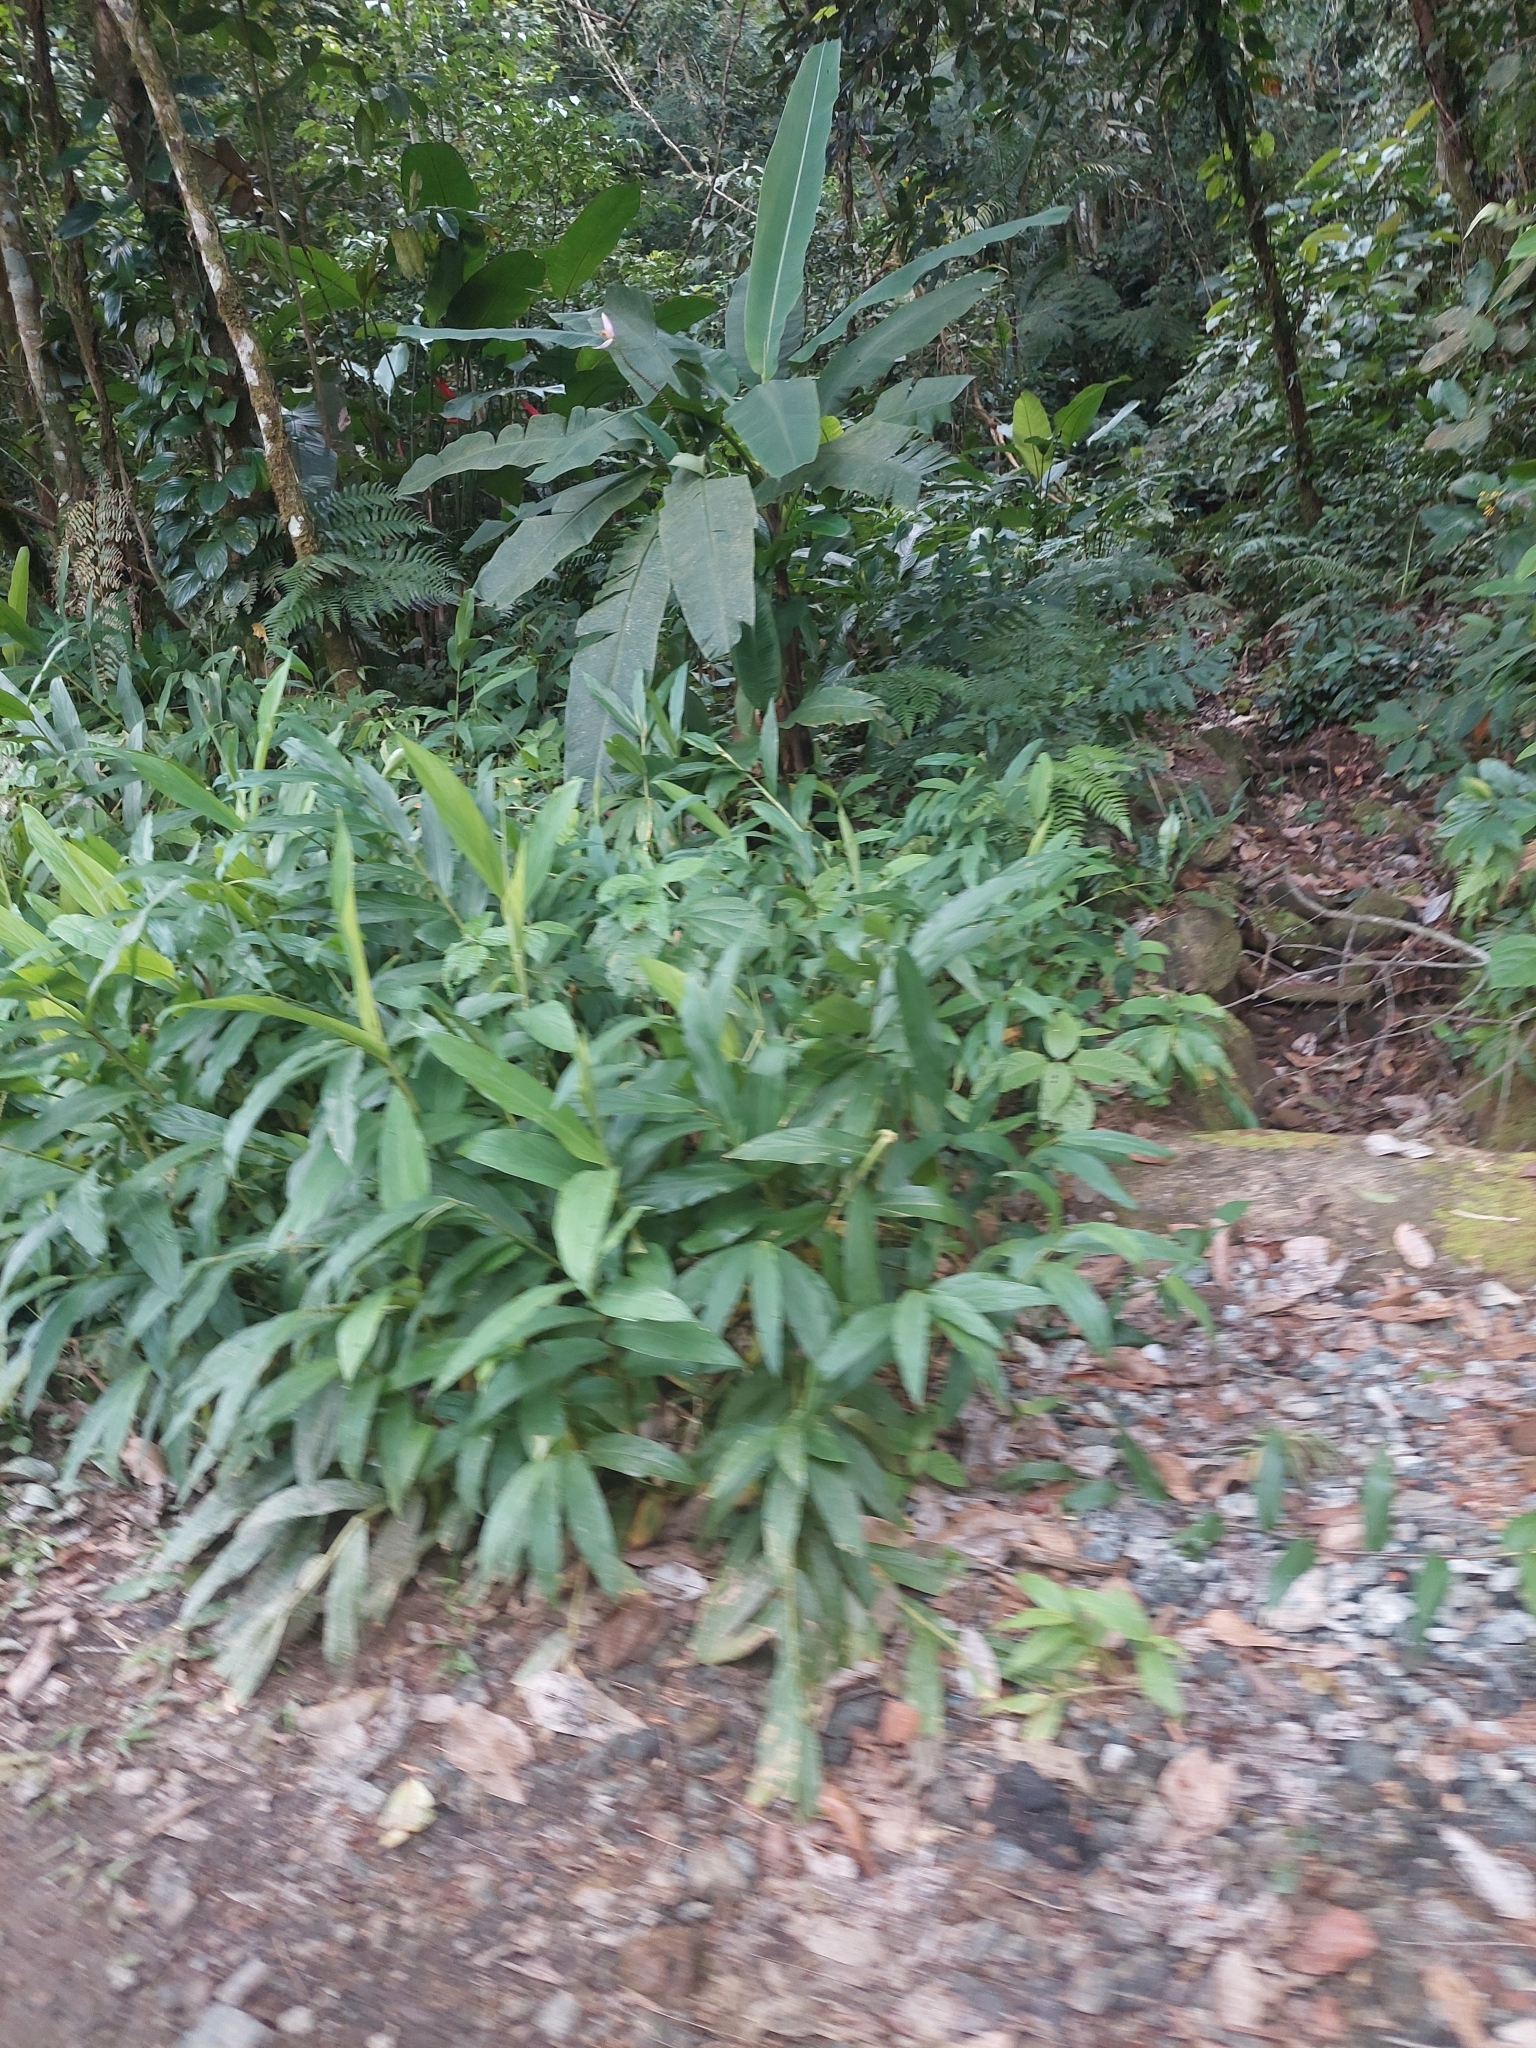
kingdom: Plantae
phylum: Tracheophyta
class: Liliopsida
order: Zingiberales
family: Zingiberaceae
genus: Hedychium
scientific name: Hedychium coronarium
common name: White garland-lily
